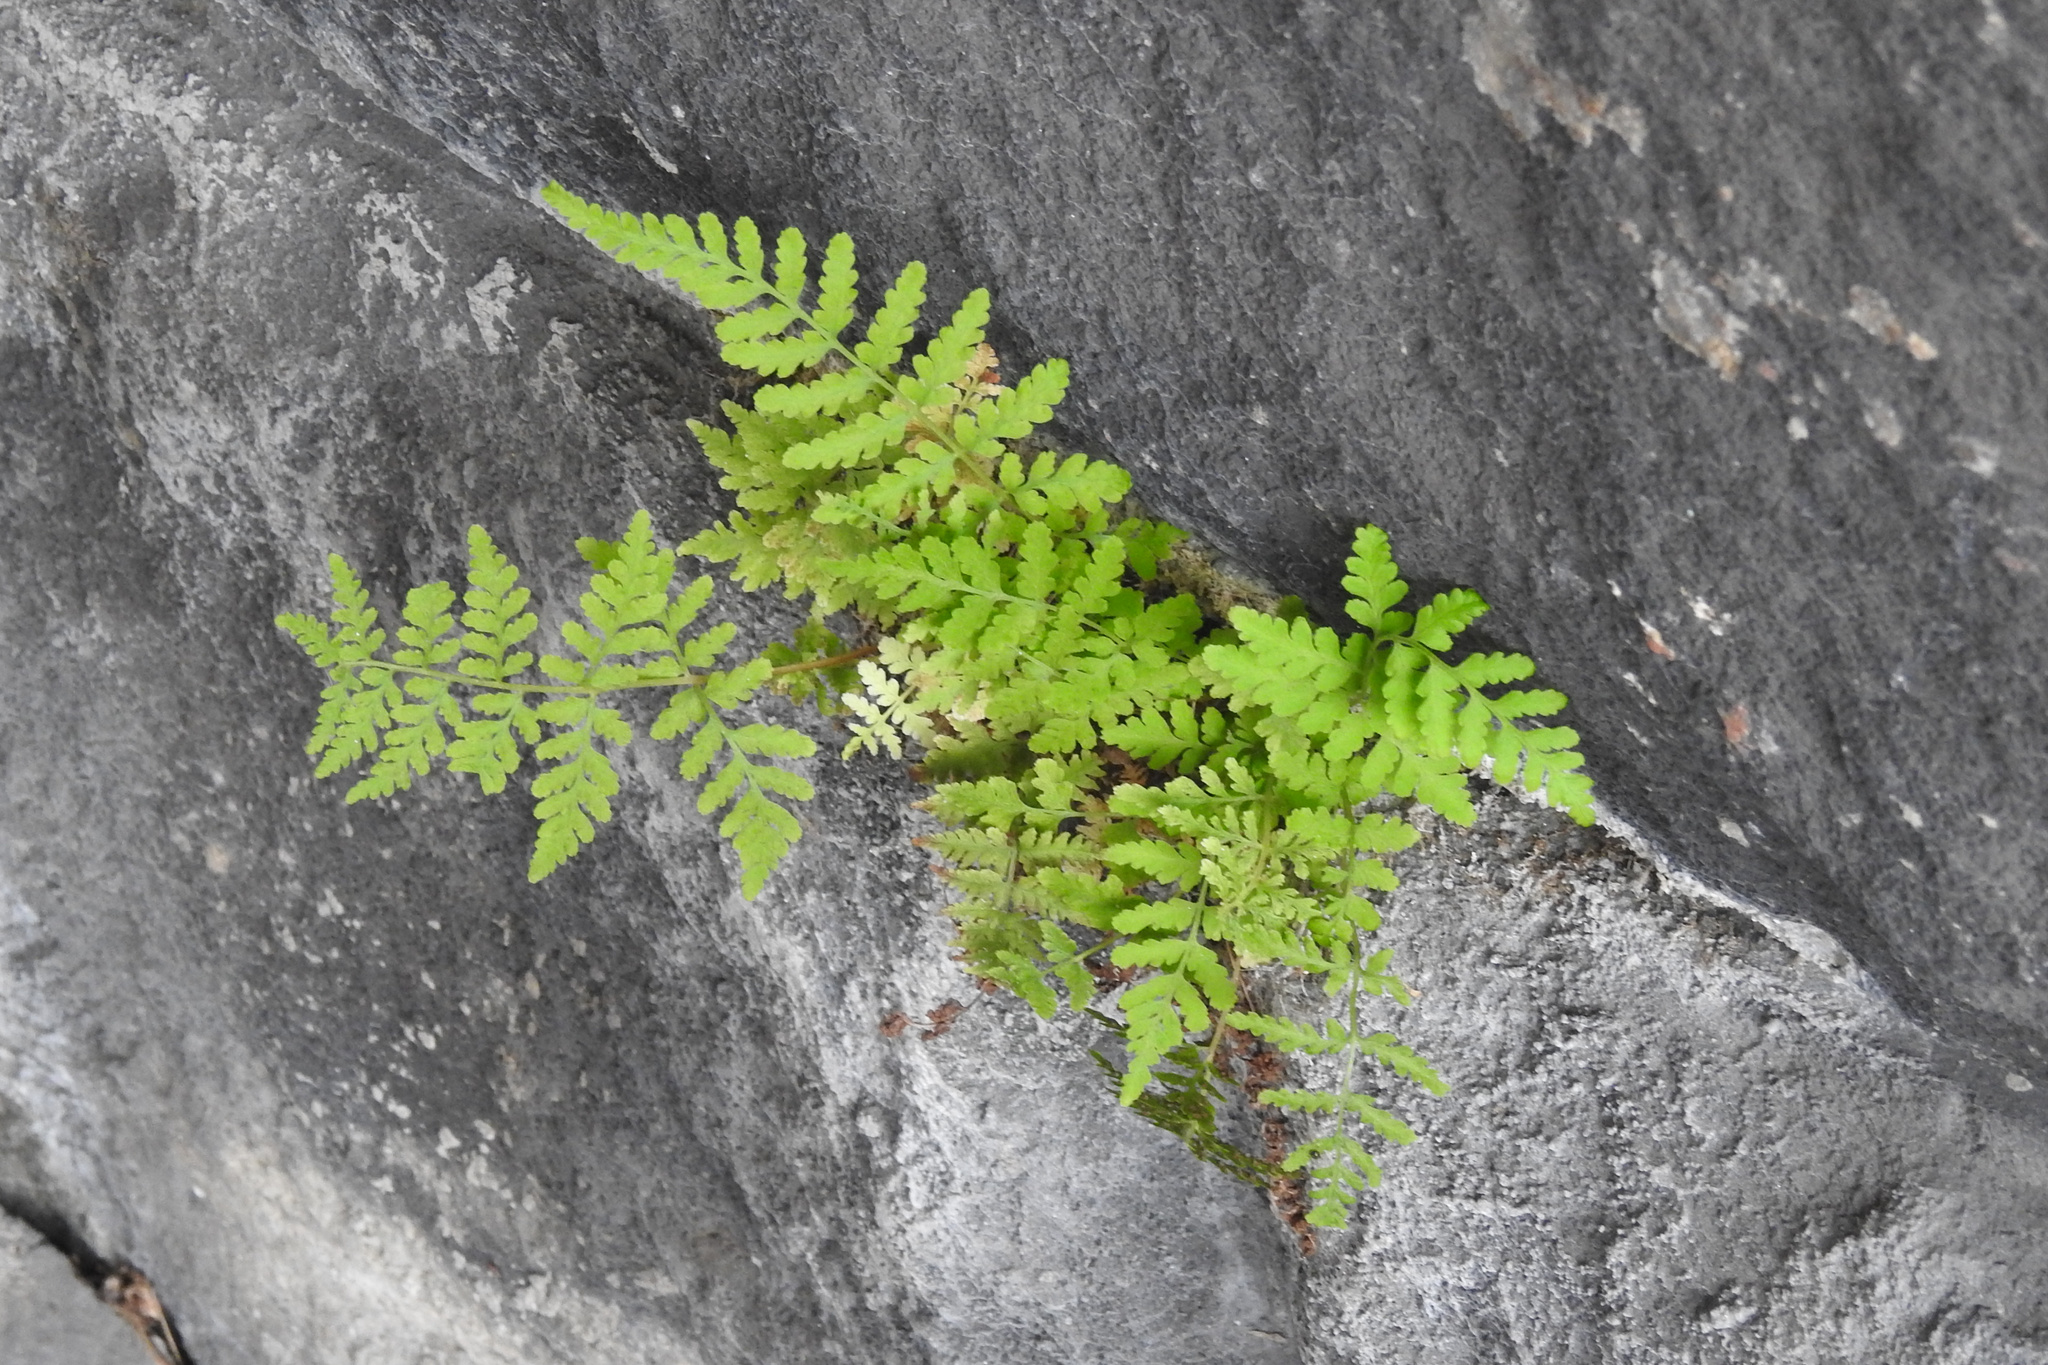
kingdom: Plantae
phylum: Tracheophyta
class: Polypodiopsida
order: Polypodiales
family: Woodsiaceae
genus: Physematium
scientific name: Physematium obtusum
